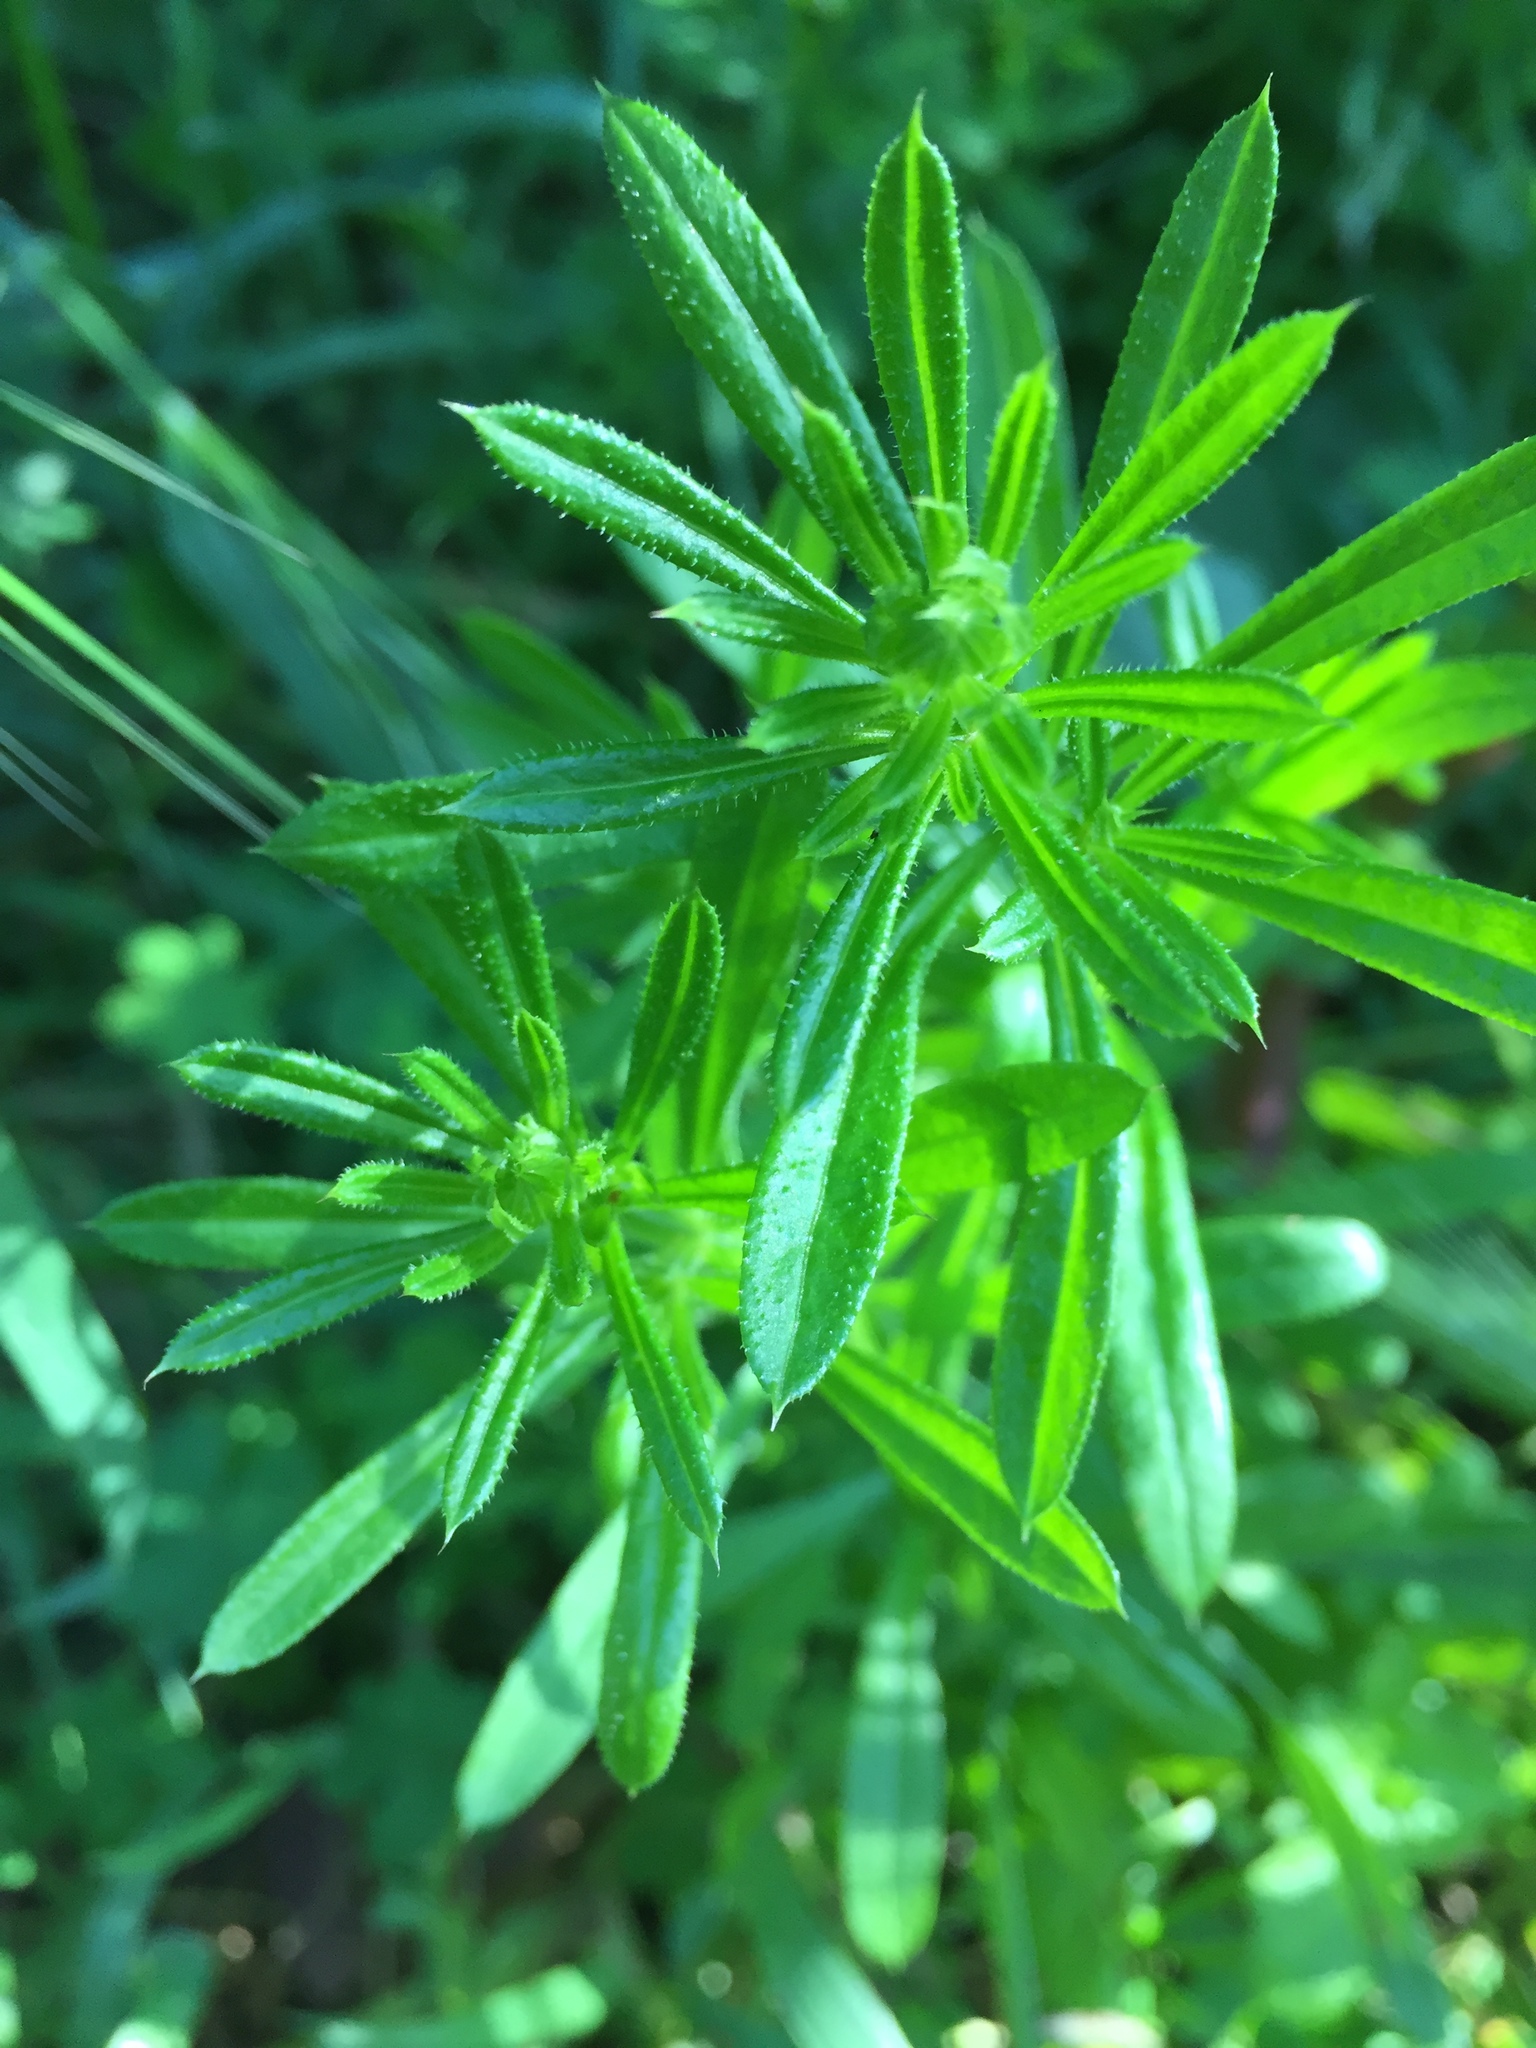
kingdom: Plantae
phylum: Tracheophyta
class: Magnoliopsida
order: Gentianales
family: Rubiaceae
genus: Galium
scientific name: Galium aparine
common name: Cleavers
